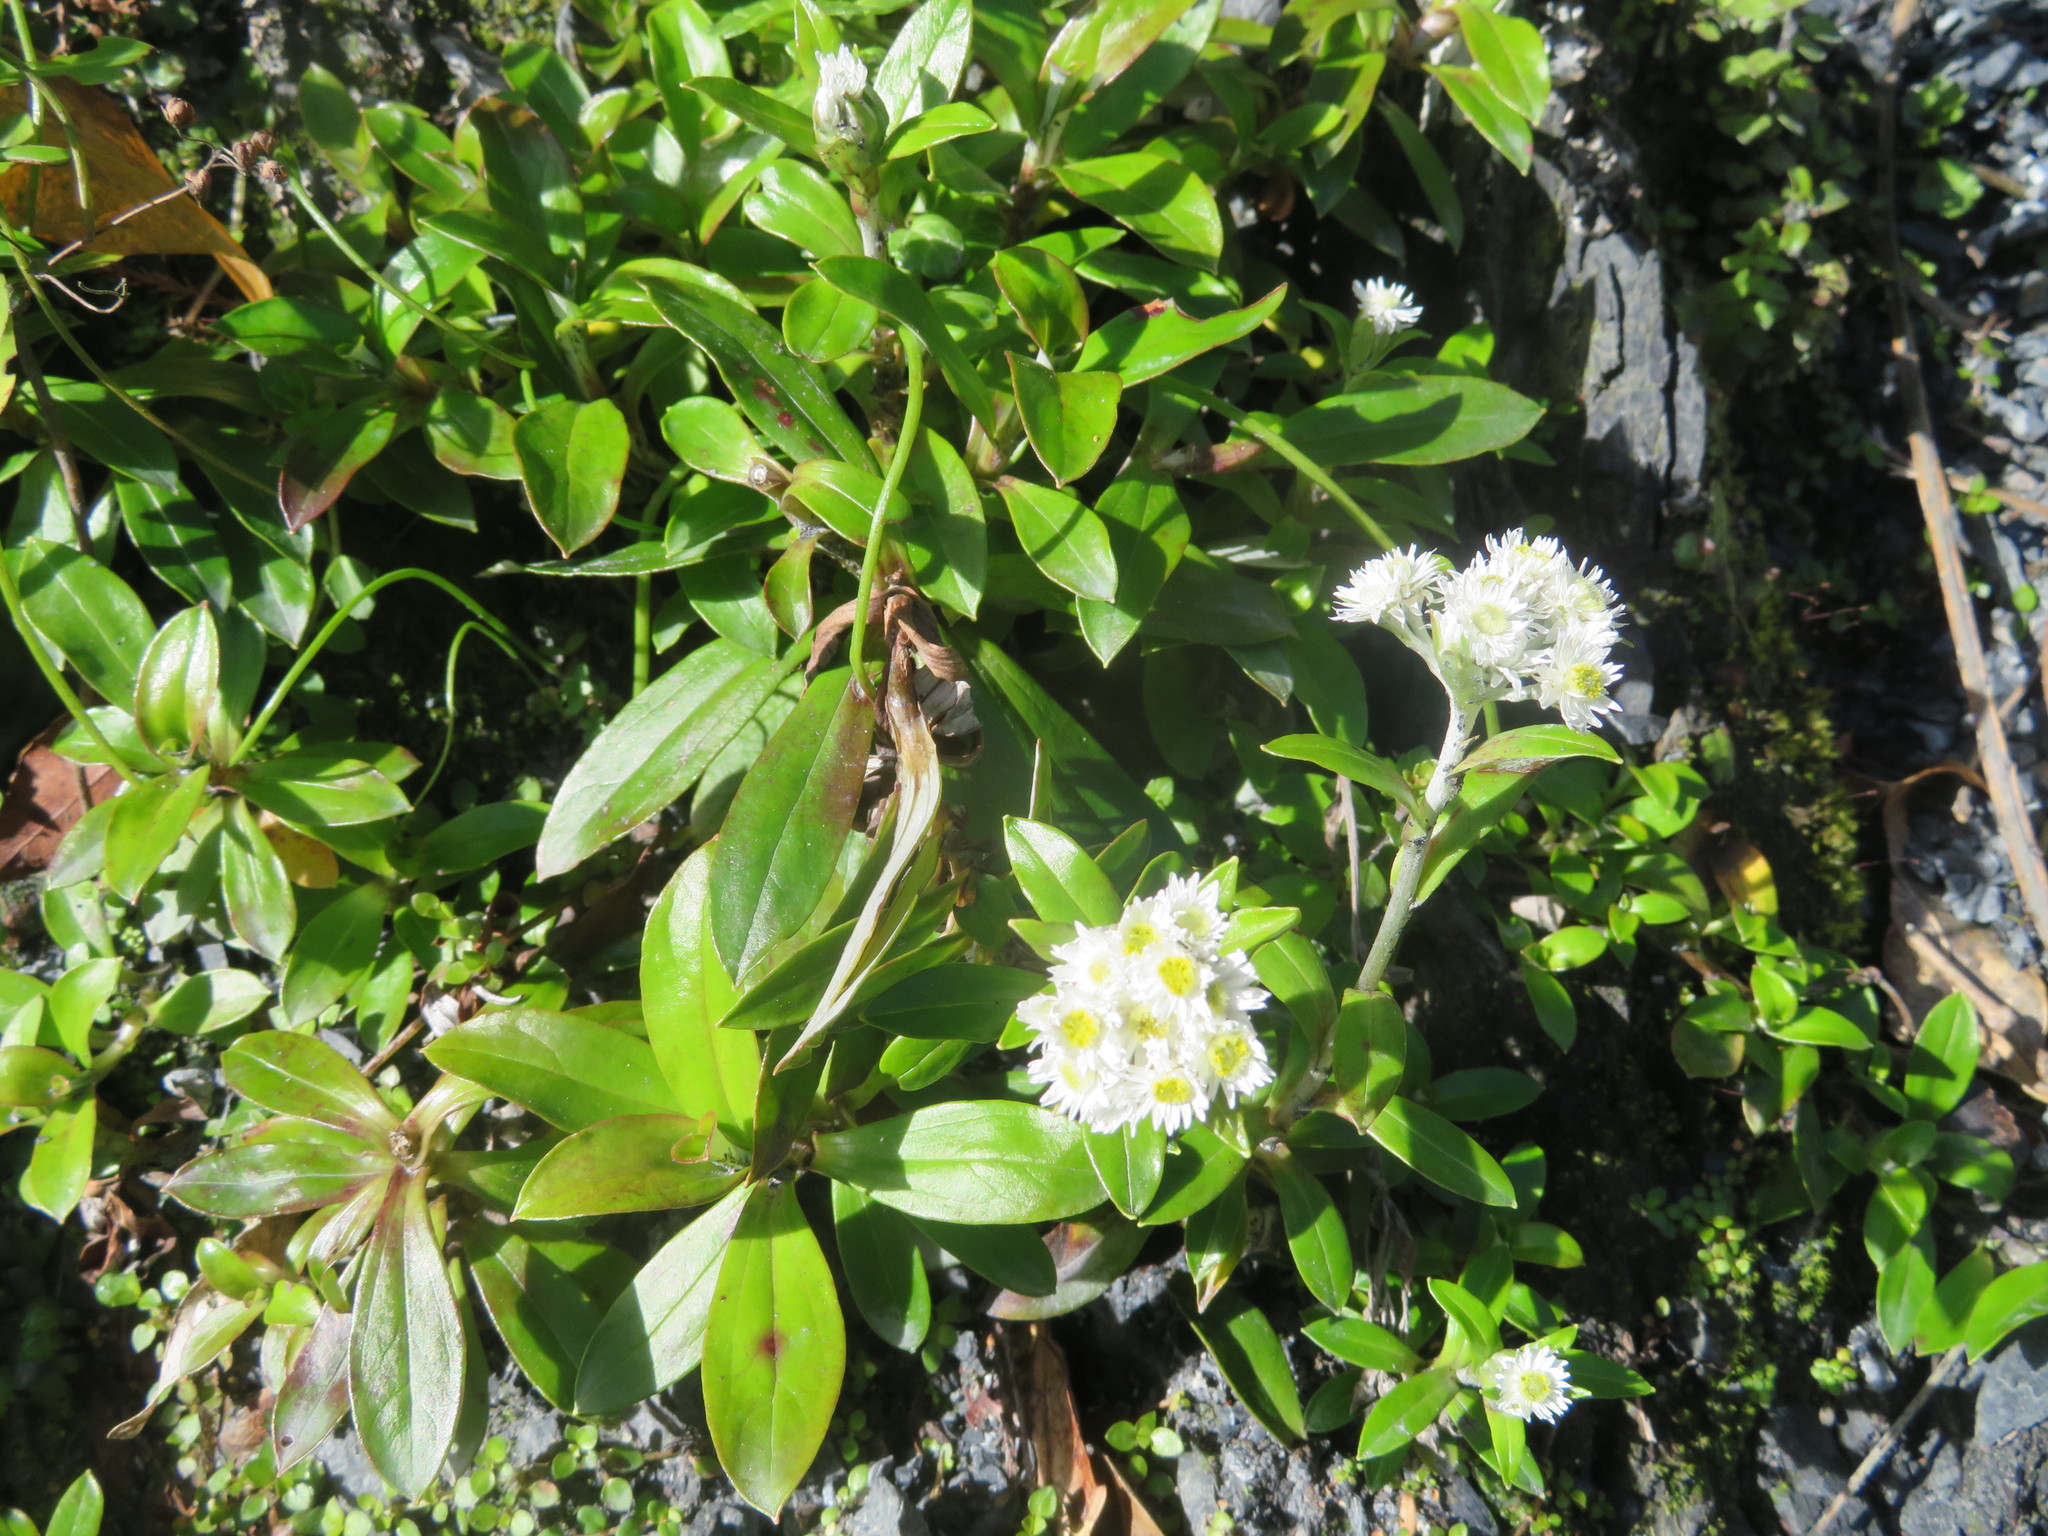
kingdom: Plantae
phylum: Tracheophyta
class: Magnoliopsida
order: Asterales
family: Asteraceae
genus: Anaphalioides
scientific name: Anaphalioides trinervis
